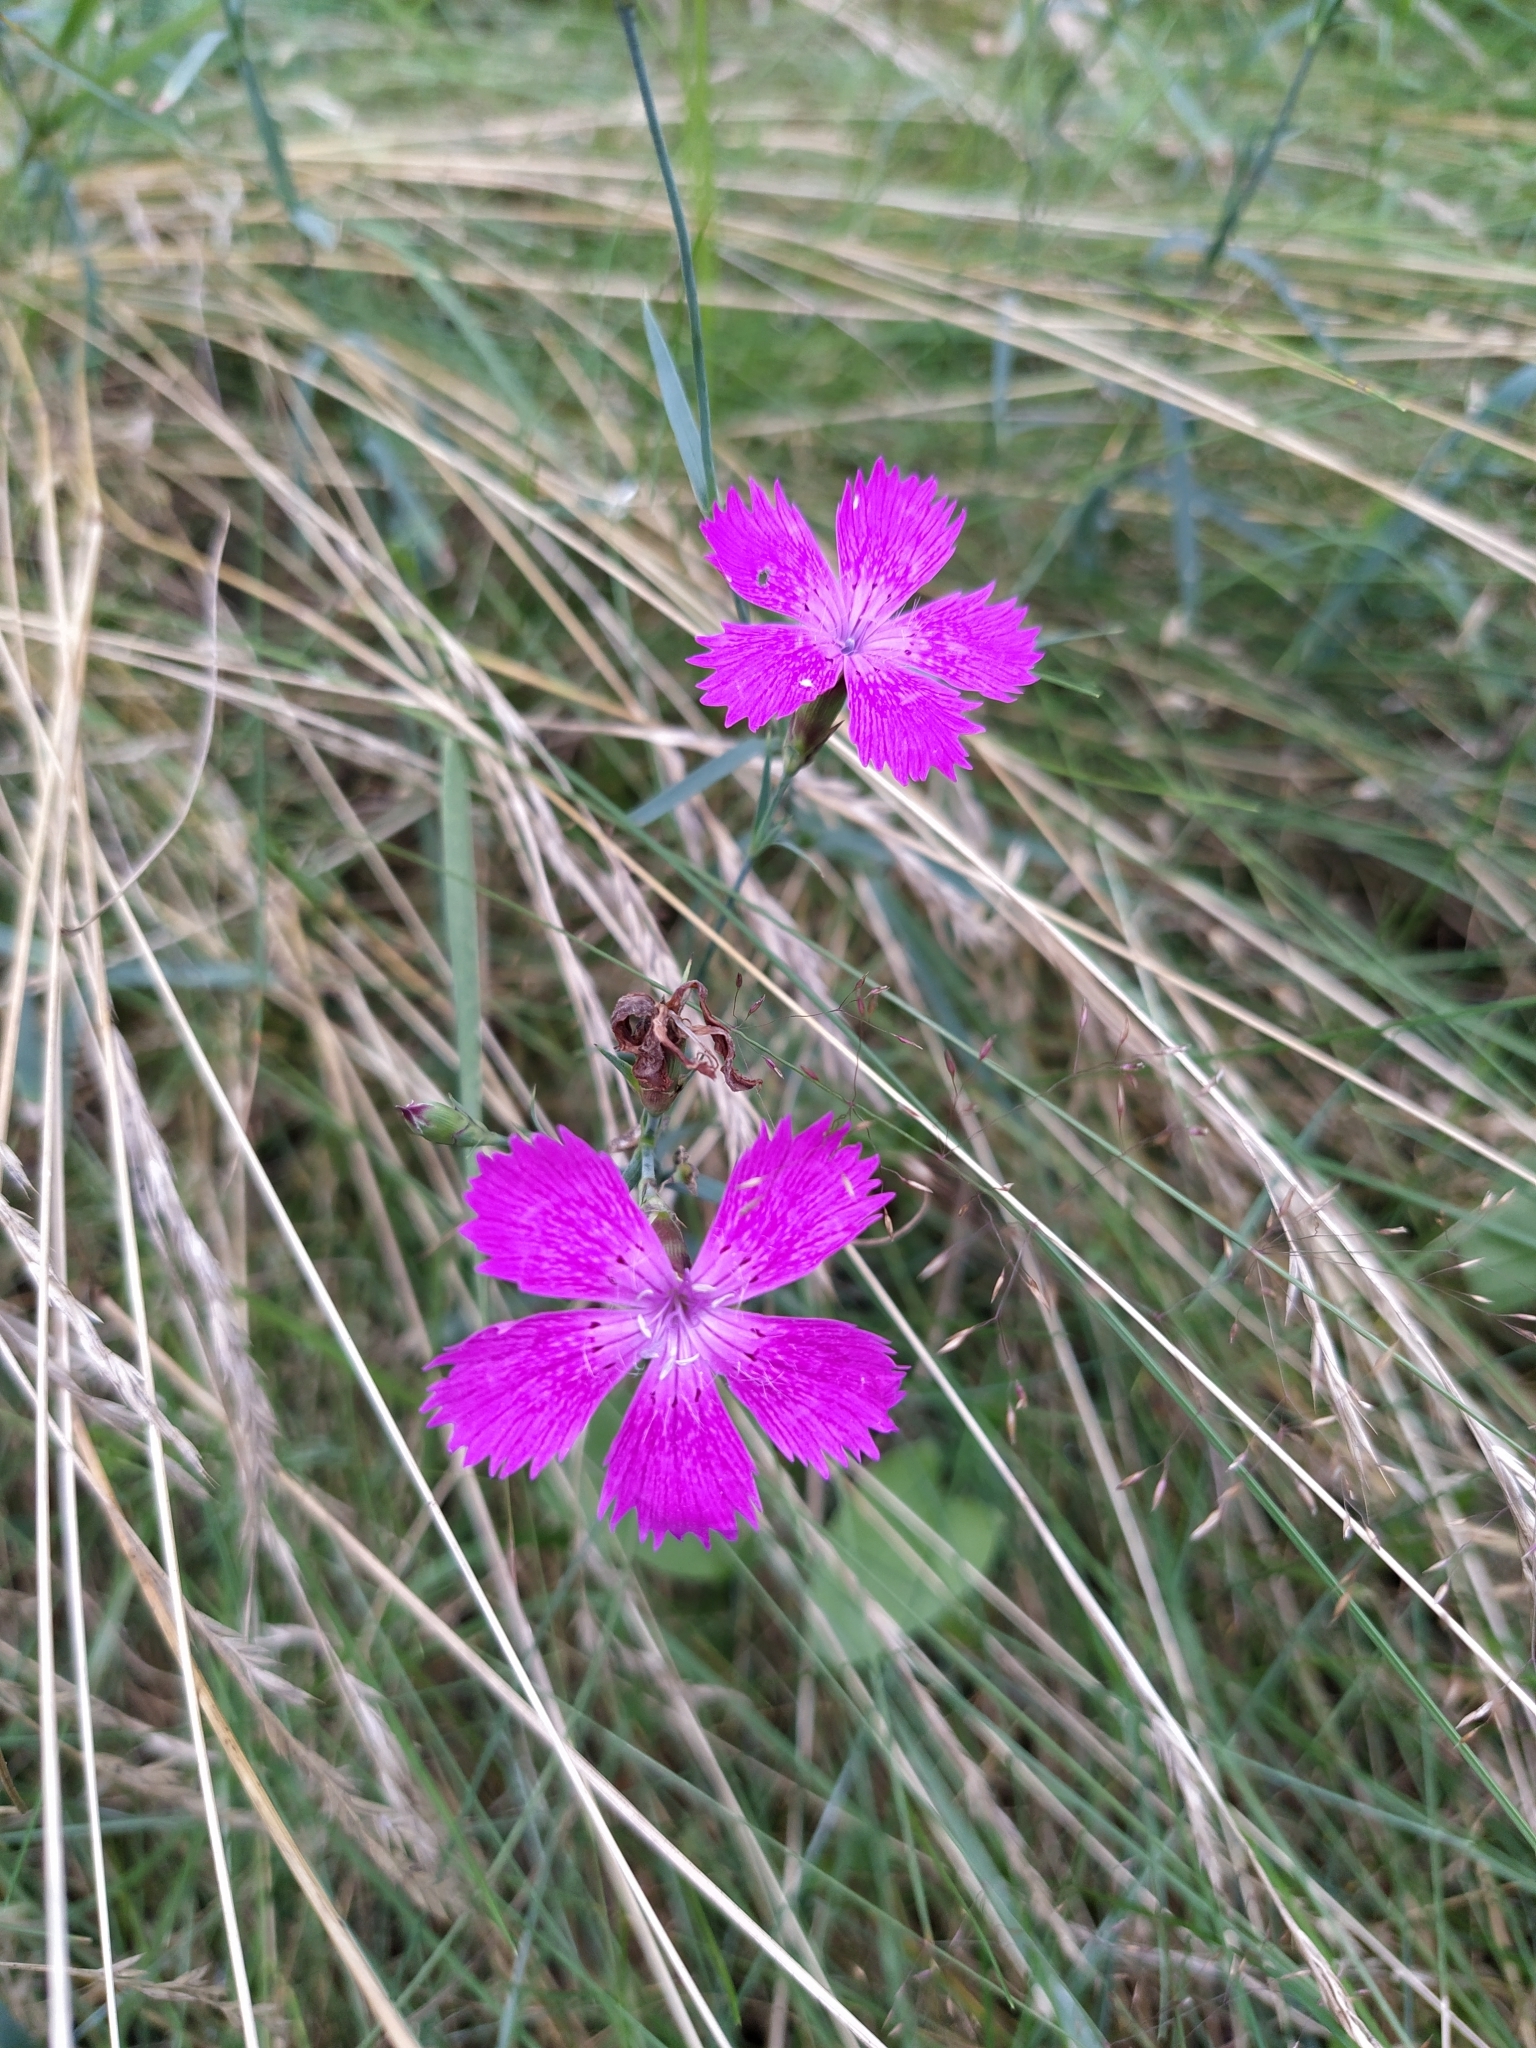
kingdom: Plantae
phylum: Tracheophyta
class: Magnoliopsida
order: Caryophyllales
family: Caryophyllaceae
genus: Dianthus
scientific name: Dianthus chinensis
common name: Rainbow pink
